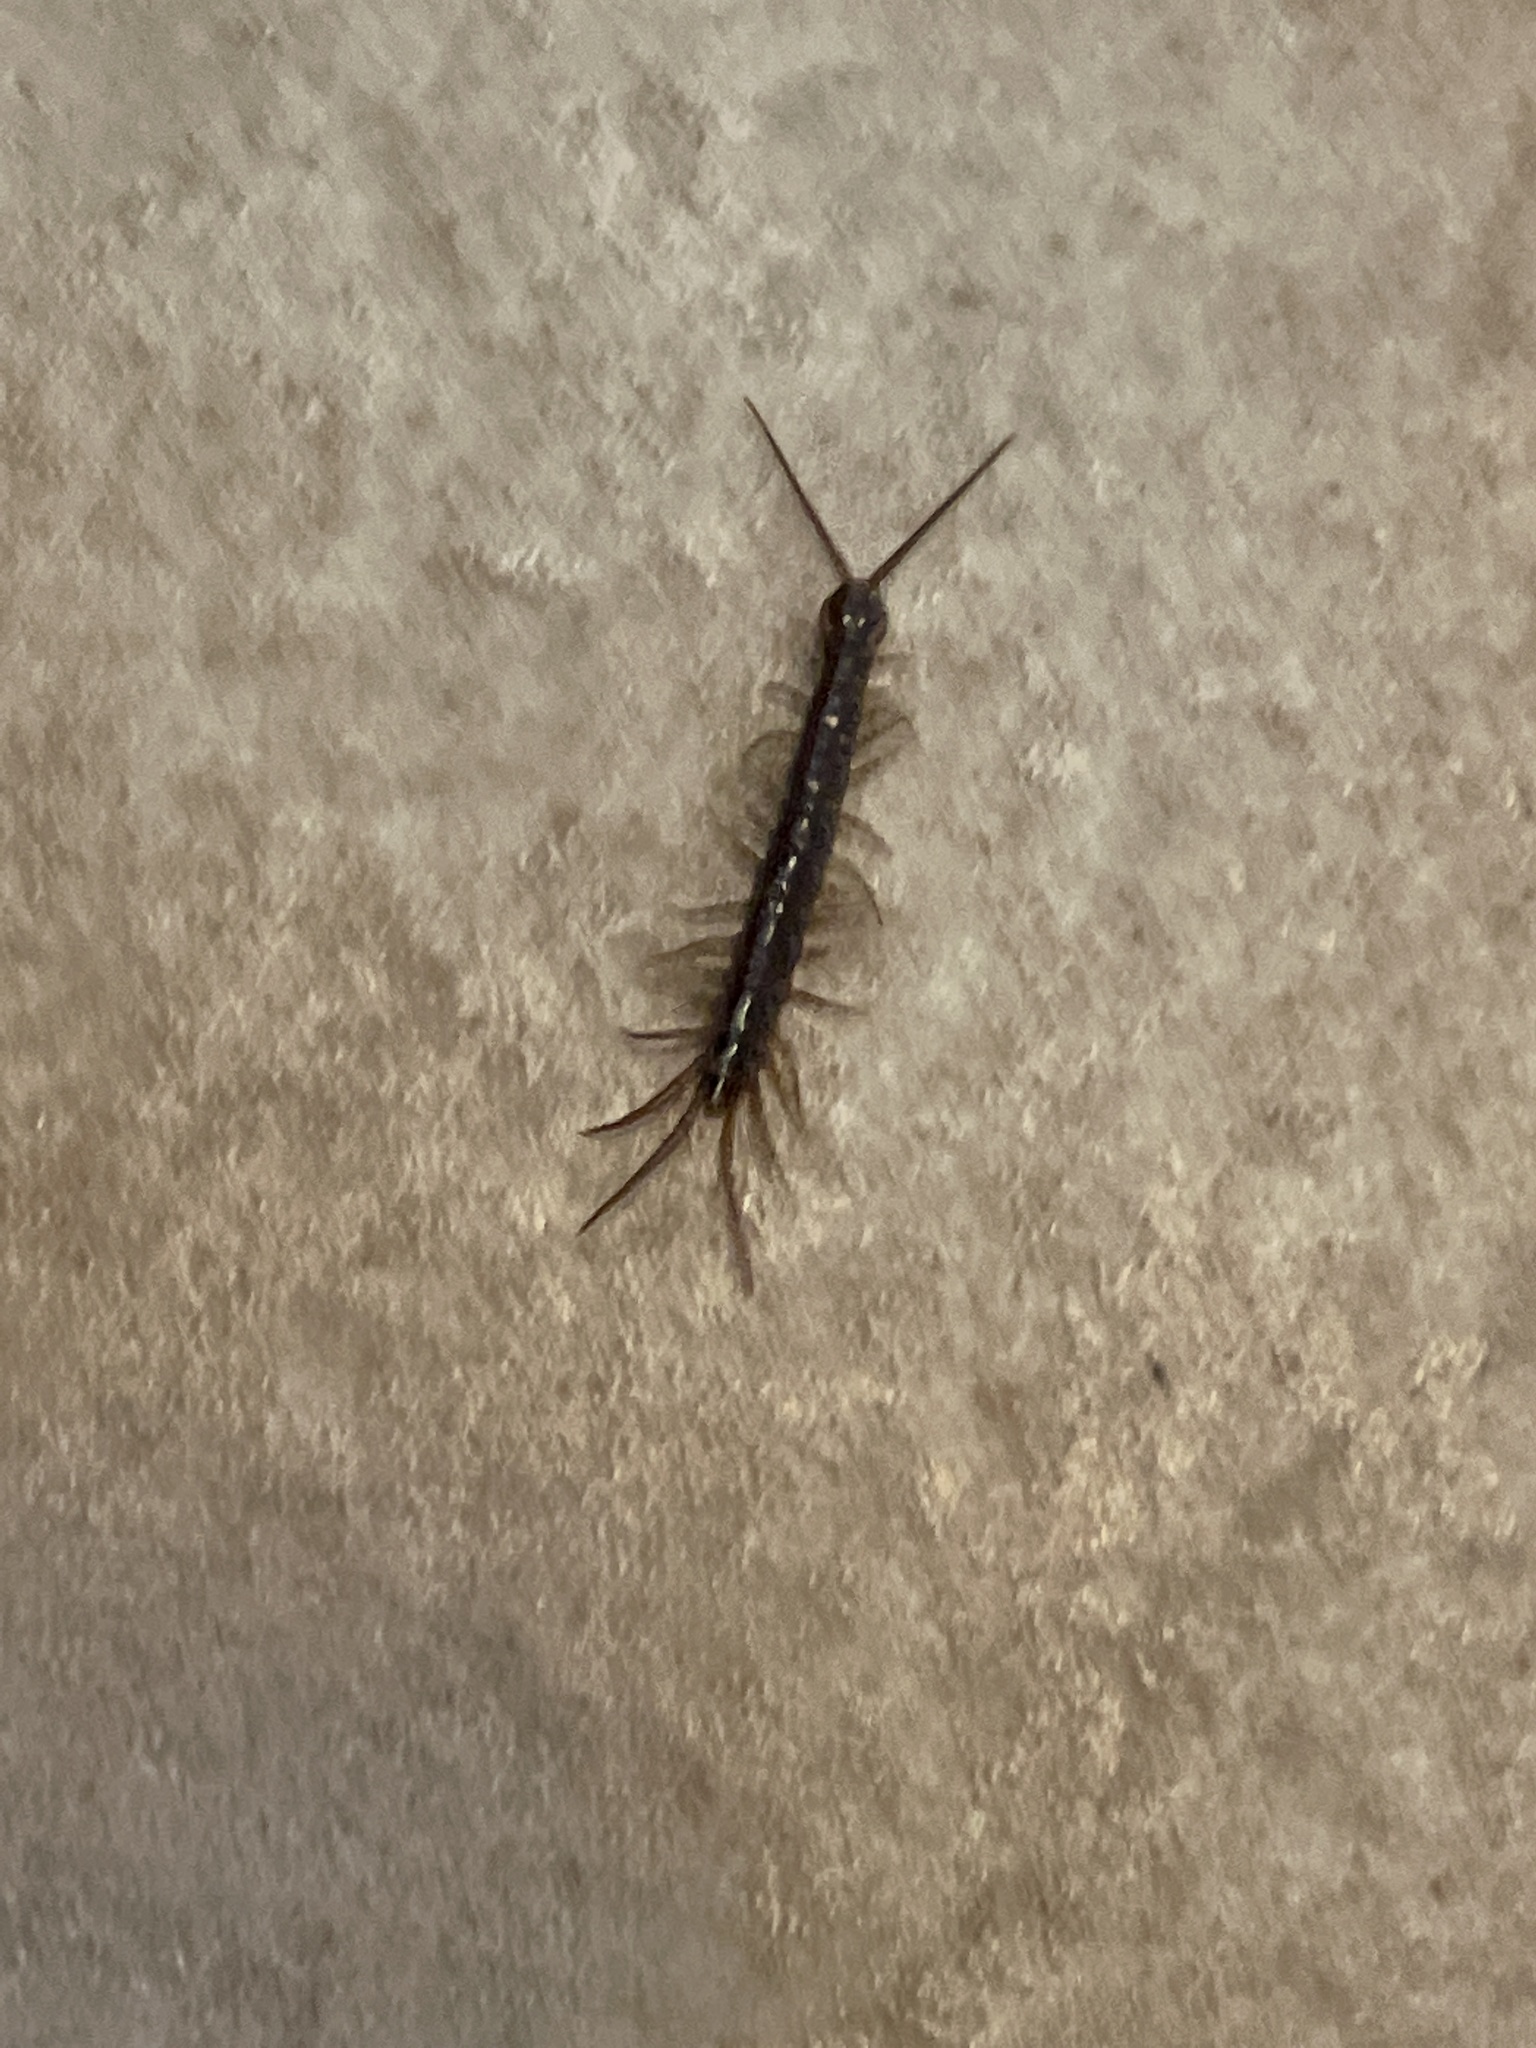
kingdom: Animalia
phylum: Arthropoda
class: Chilopoda
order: Lithobiomorpha
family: Lithobiidae
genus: Lithobius
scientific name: Lithobius forficatus
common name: Centipede
